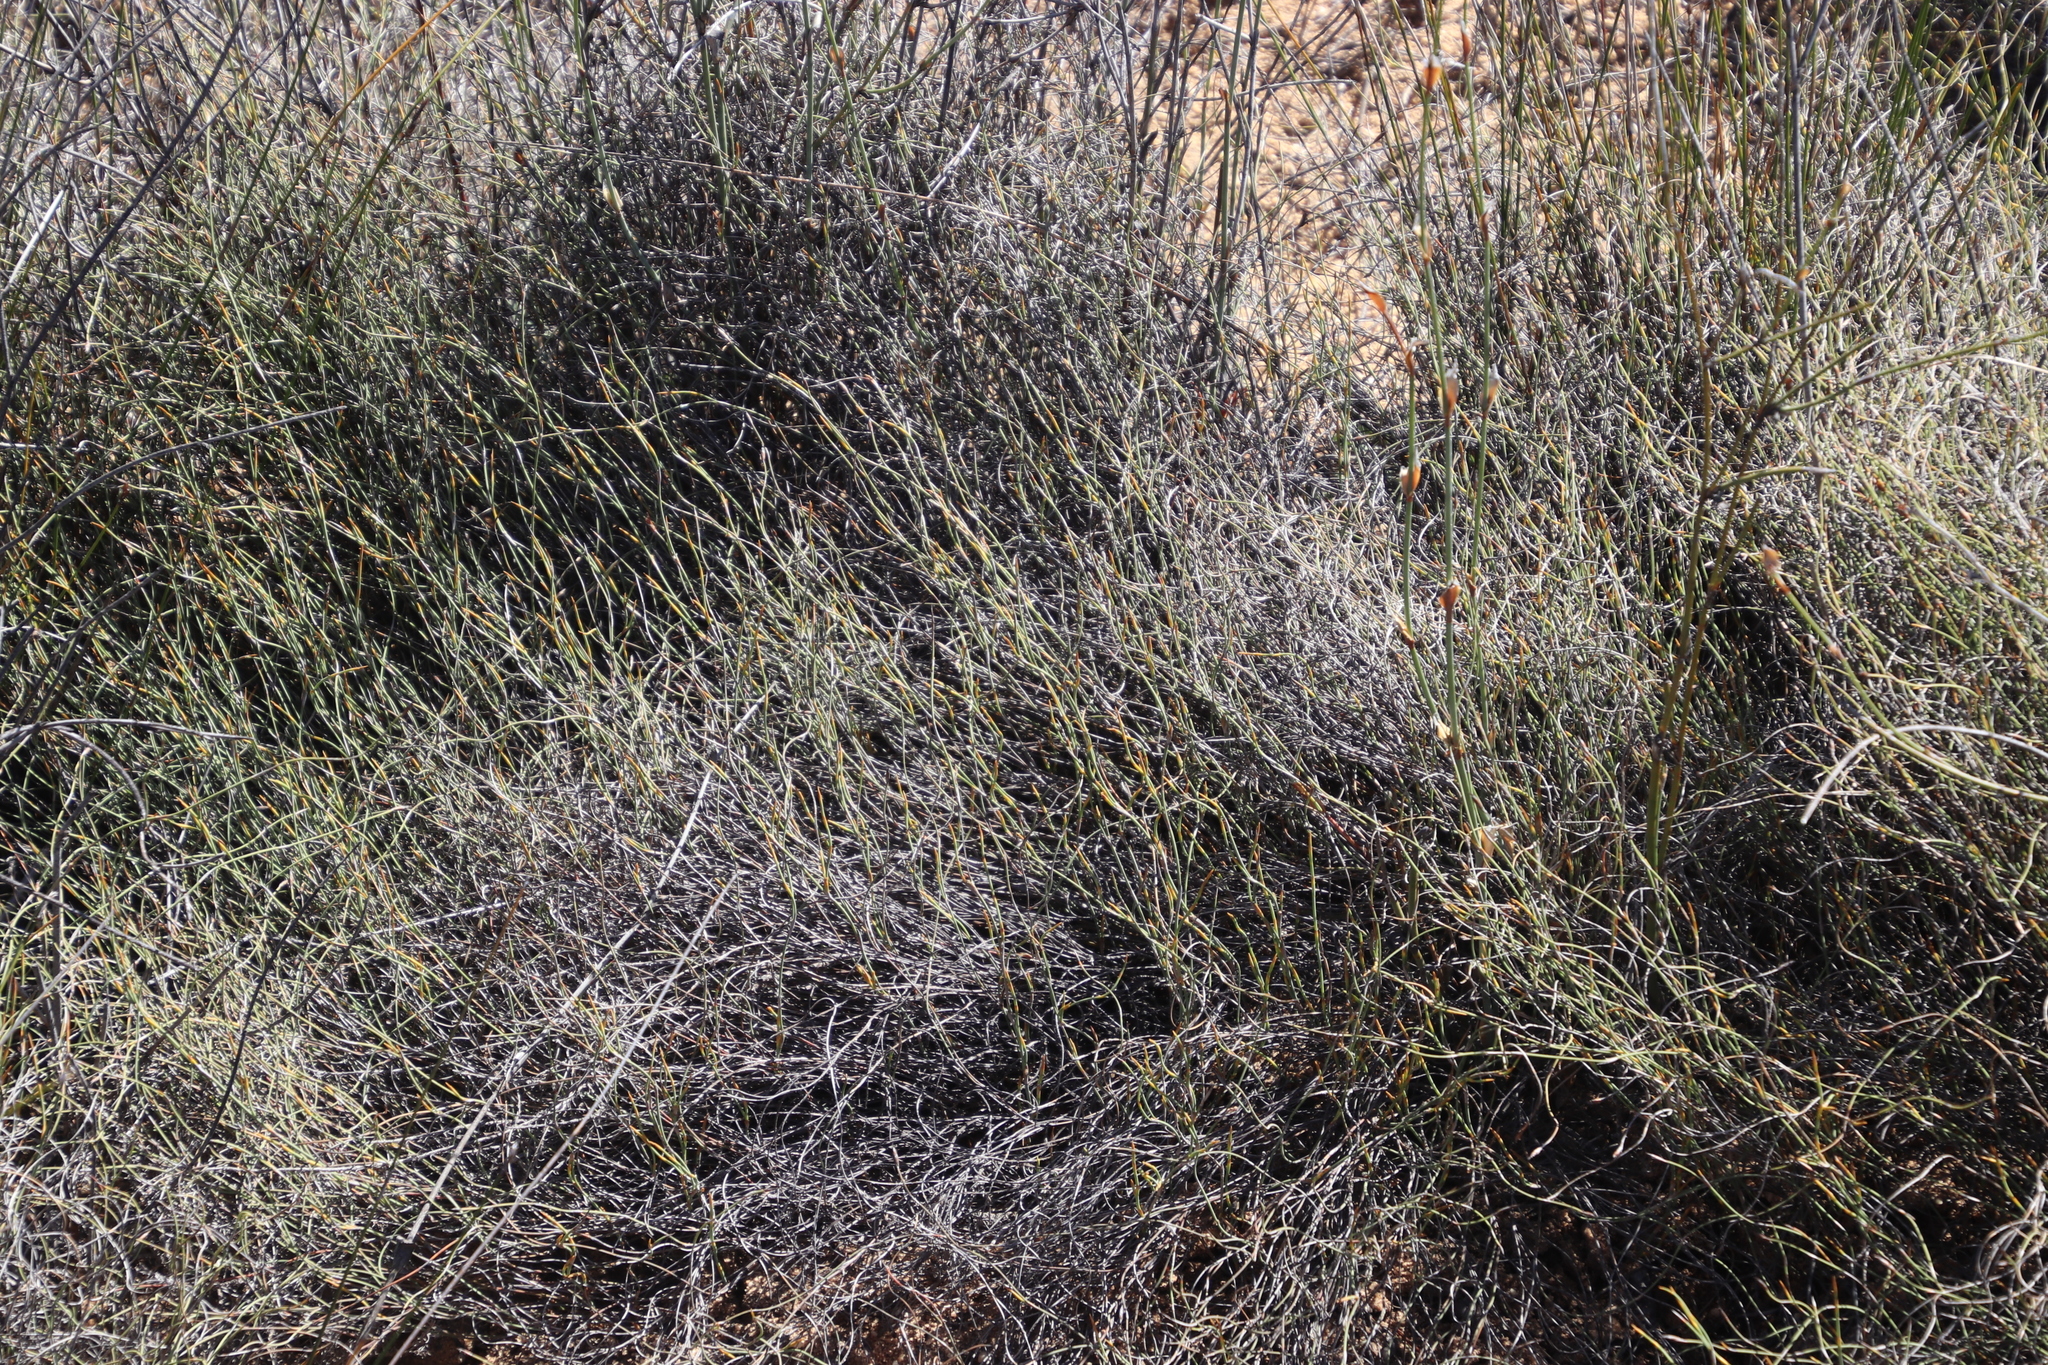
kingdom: Plantae
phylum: Tracheophyta
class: Liliopsida
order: Poales
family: Restionaceae
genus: Restio
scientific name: Restio unispicatus
